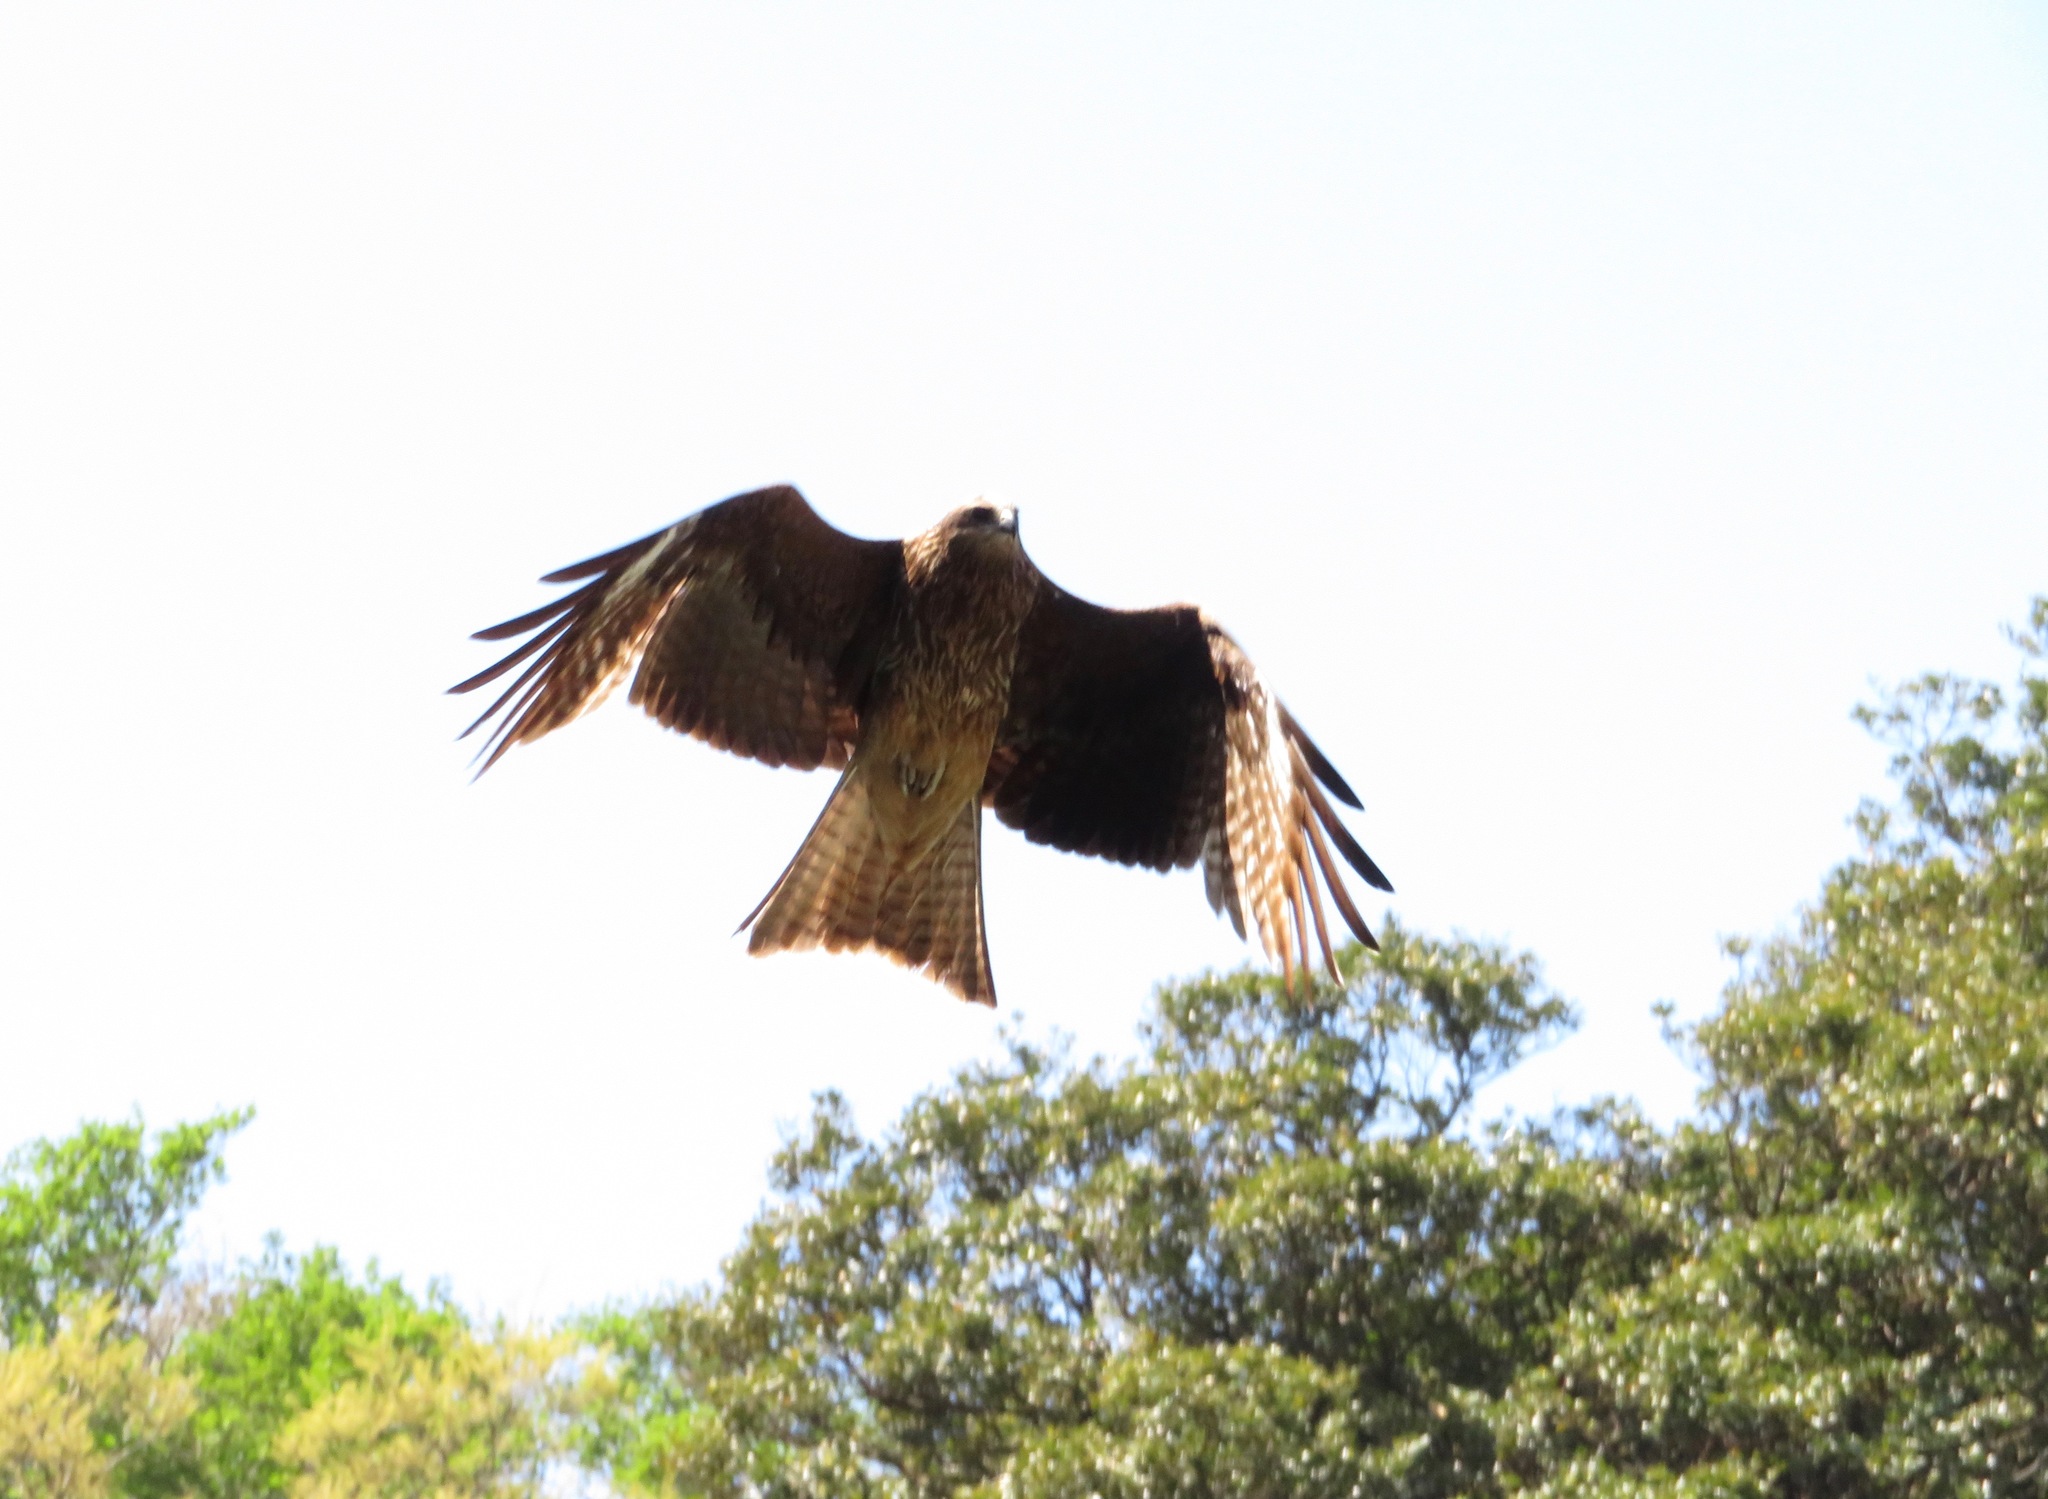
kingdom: Animalia
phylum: Chordata
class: Aves
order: Accipitriformes
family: Accipitridae
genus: Milvus
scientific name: Milvus migrans
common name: Black kite
